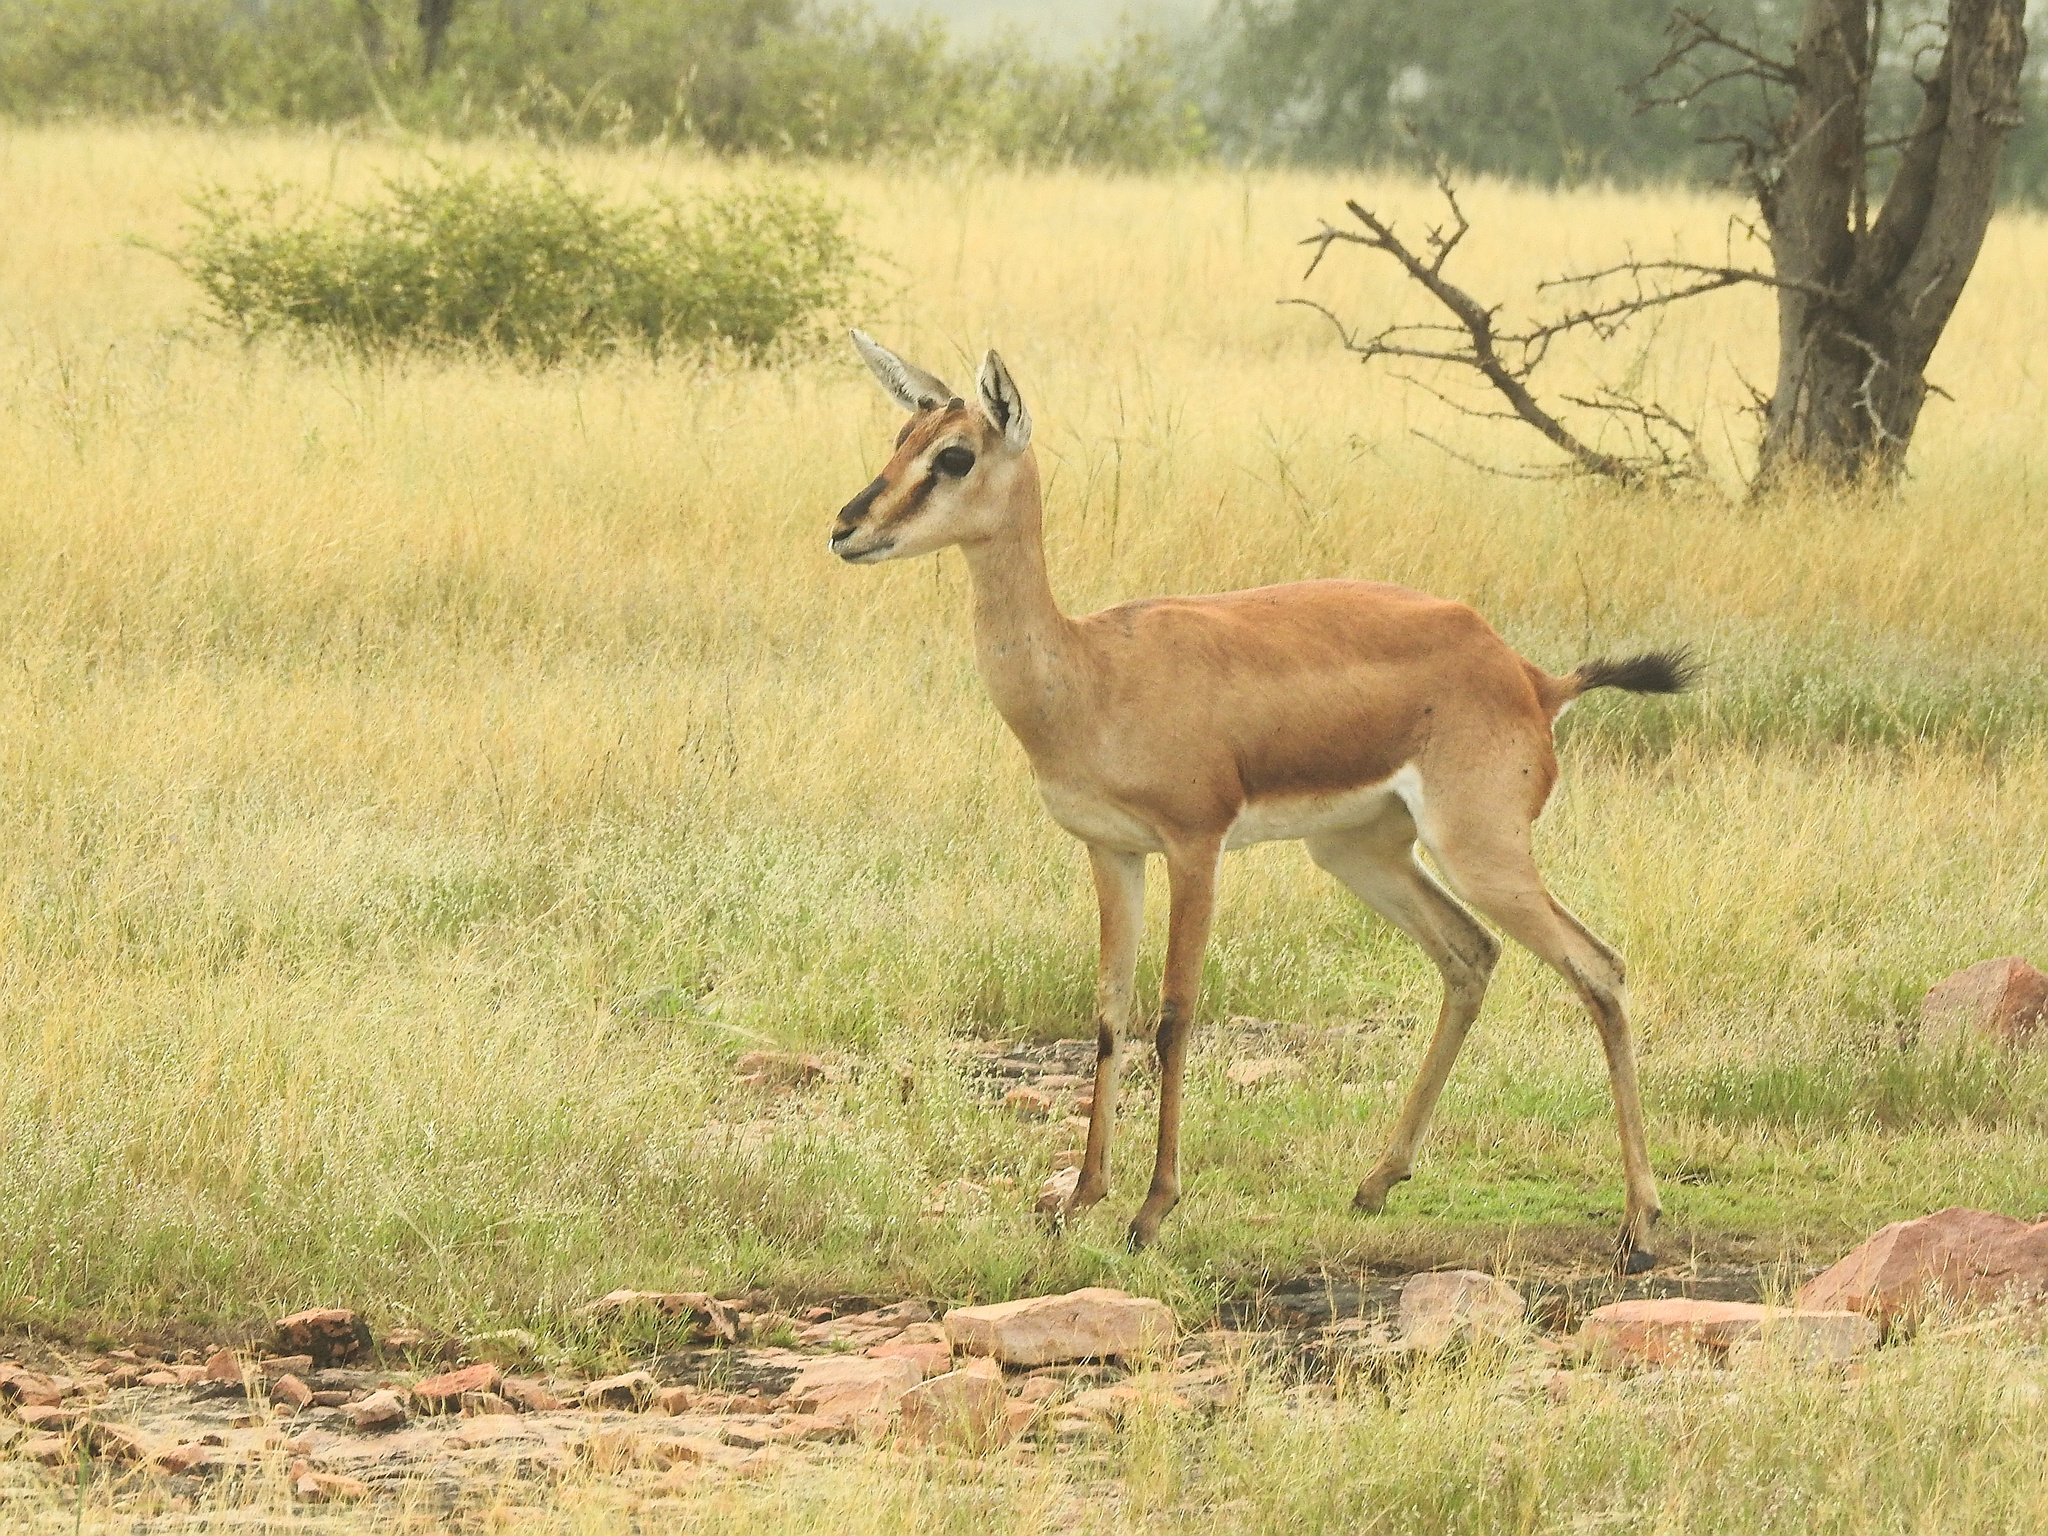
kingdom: Animalia
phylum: Chordata
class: Mammalia
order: Artiodactyla
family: Bovidae
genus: Gazella
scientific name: Gazella bennettii
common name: Indian gazelle
